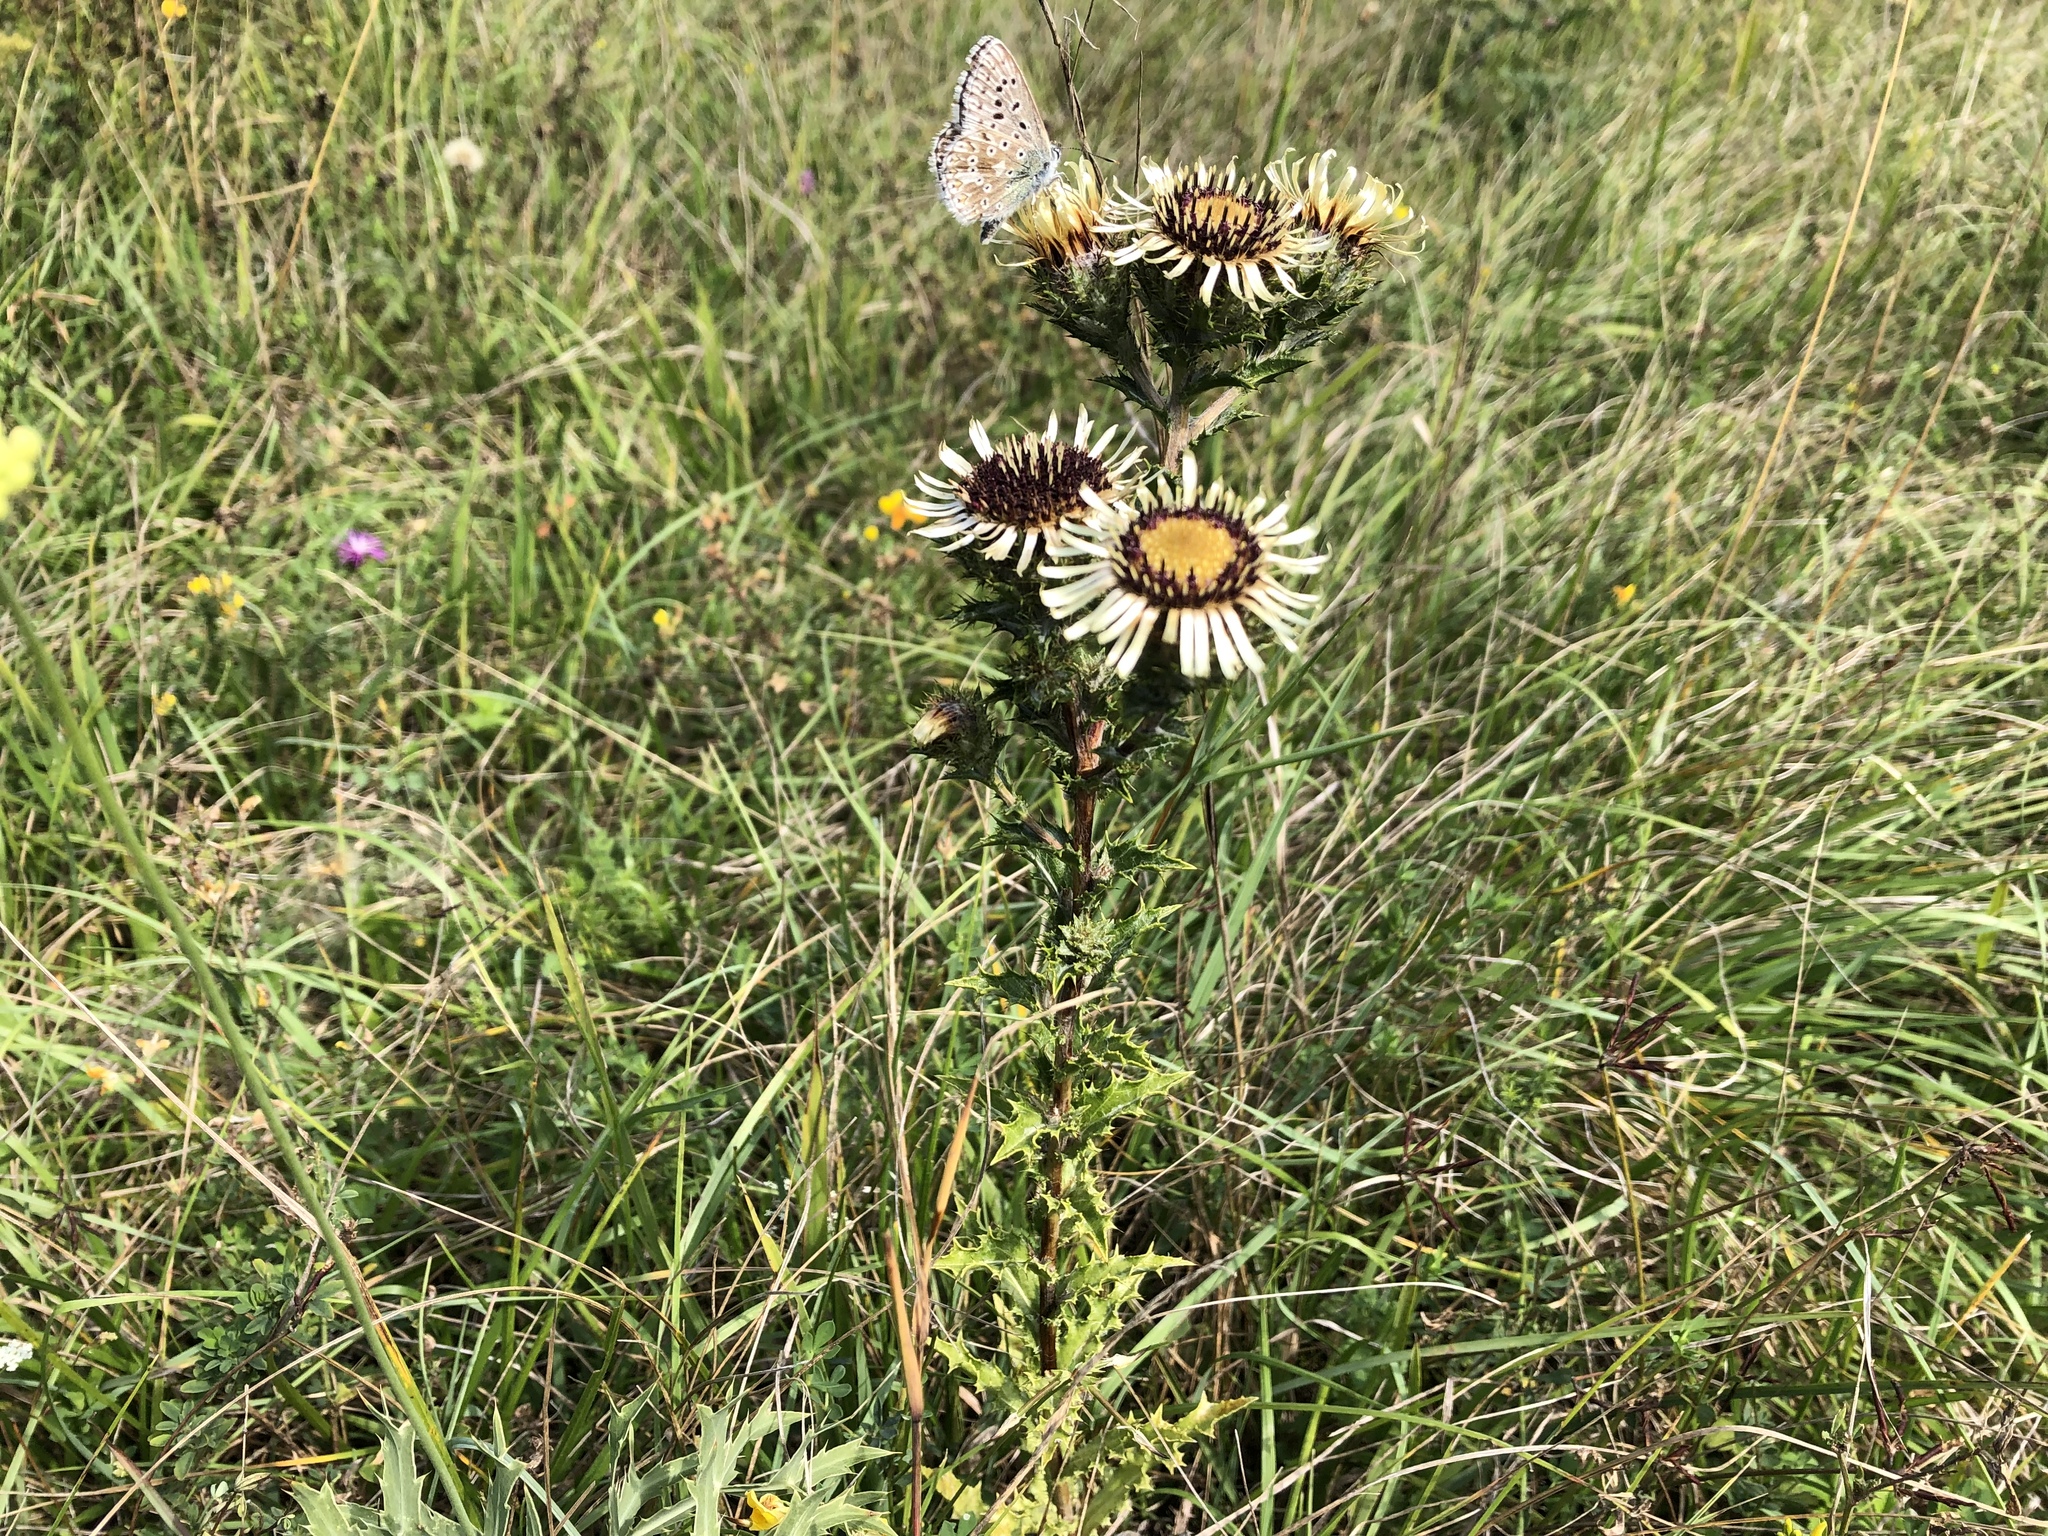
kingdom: Plantae
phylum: Tracheophyta
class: Magnoliopsida
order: Asterales
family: Asteraceae
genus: Carlina
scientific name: Carlina vulgaris
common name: Carline thistle
